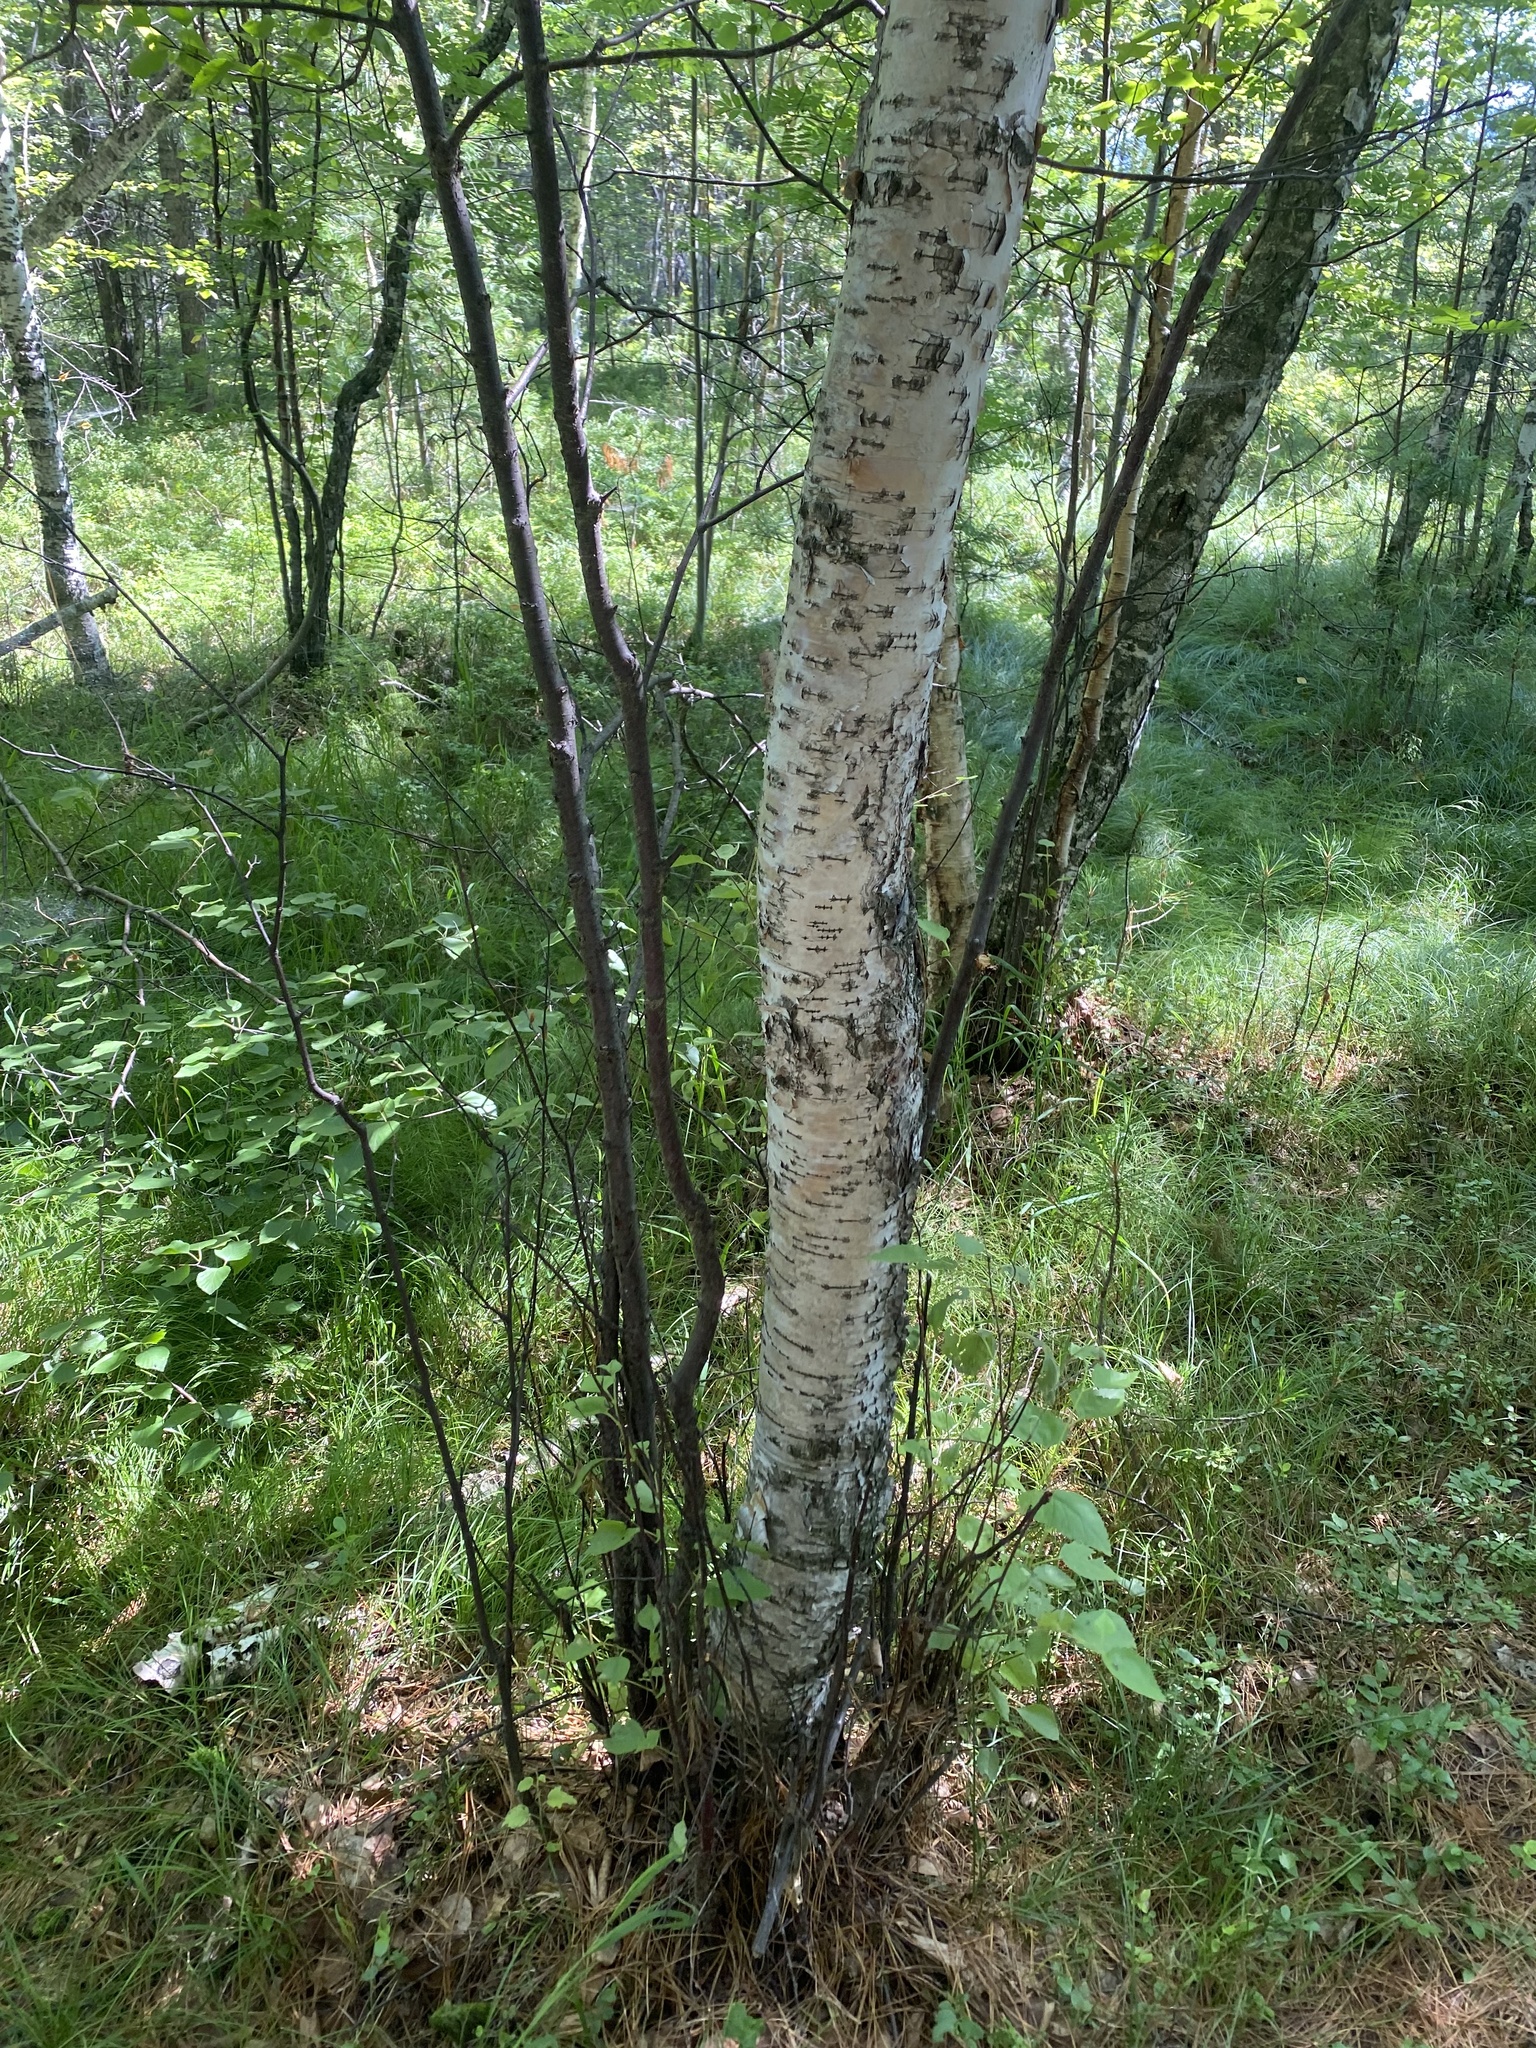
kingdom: Plantae
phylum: Tracheophyta
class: Magnoliopsida
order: Fagales
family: Betulaceae
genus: Betula
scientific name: Betula pubescens
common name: Downy birch
